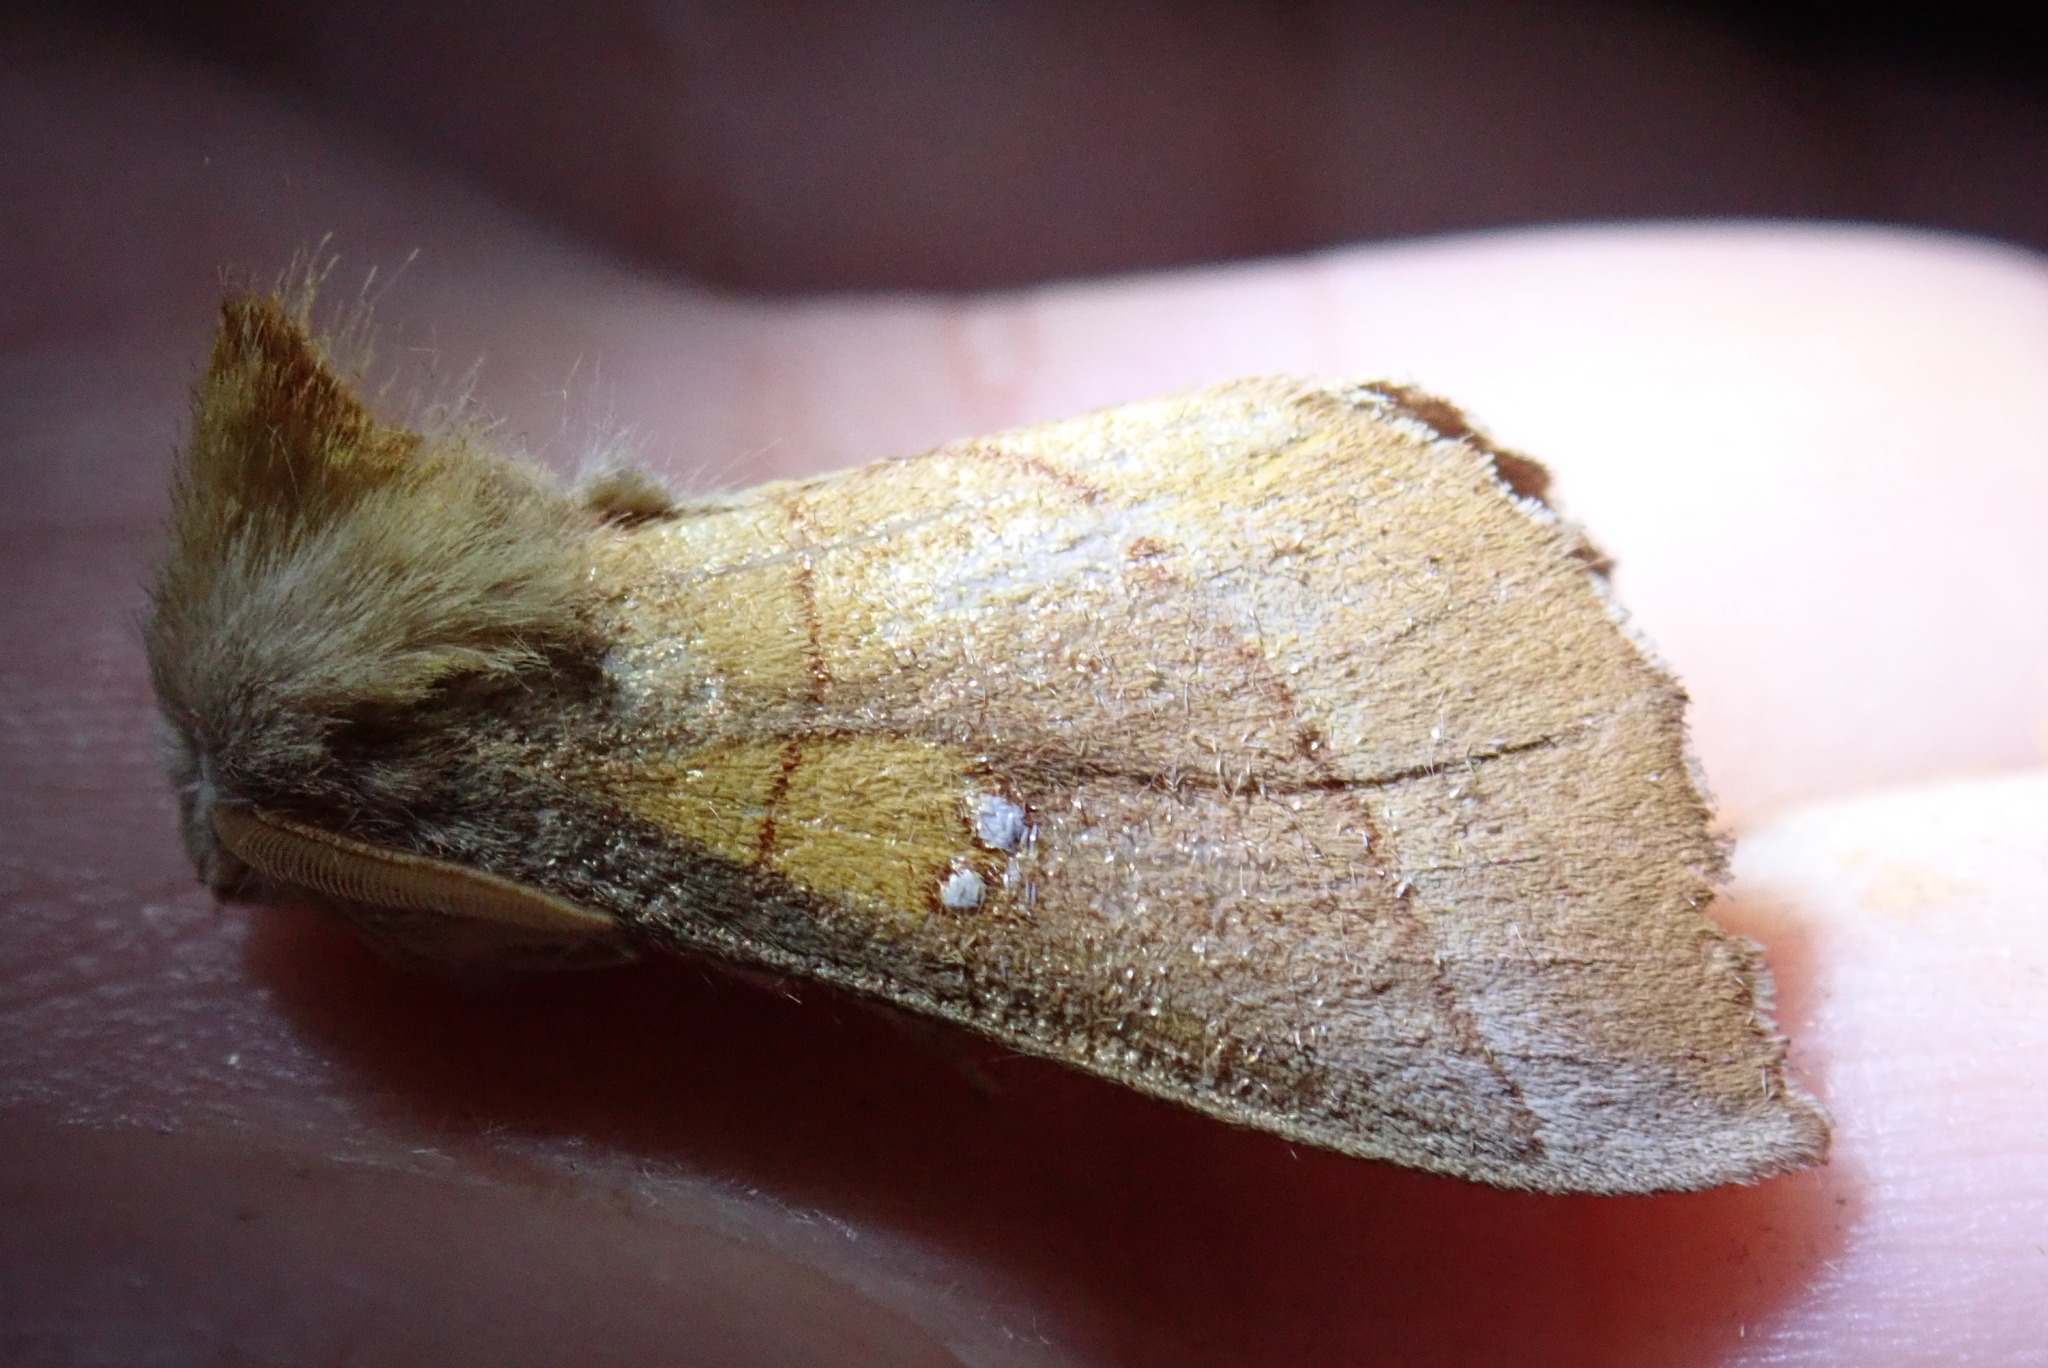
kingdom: Animalia
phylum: Arthropoda
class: Insecta
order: Lepidoptera
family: Notodontidae
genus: Nadata
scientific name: Nadata gibbosa
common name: White-dotted prominent
